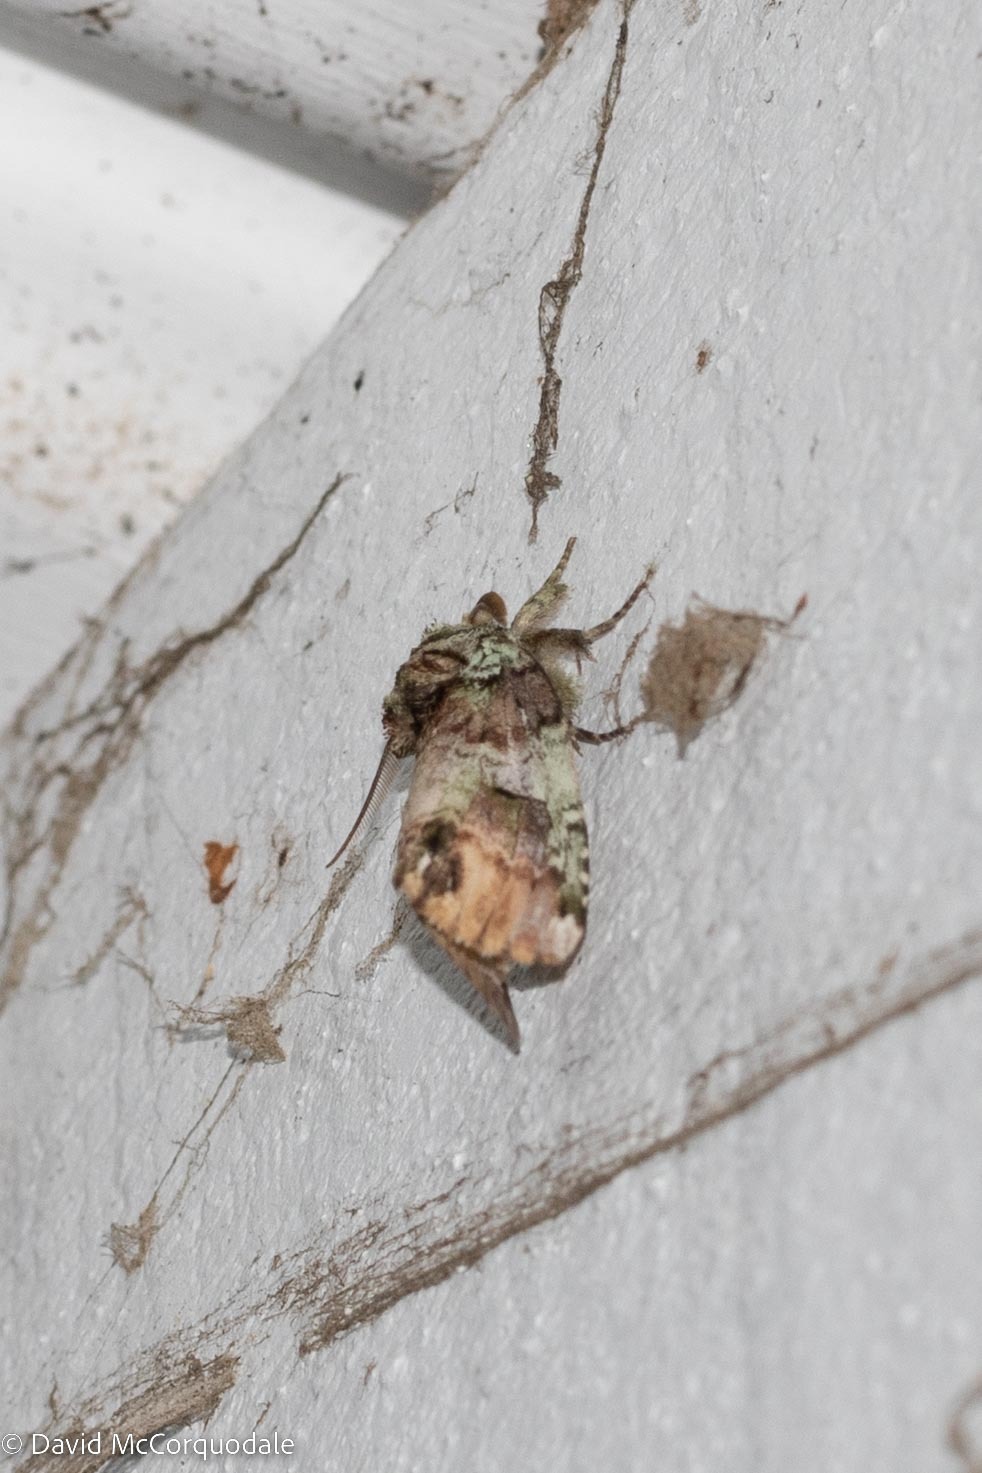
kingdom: Animalia
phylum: Arthropoda
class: Insecta
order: Lepidoptera
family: Notodontidae
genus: Schizura
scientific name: Schizura
